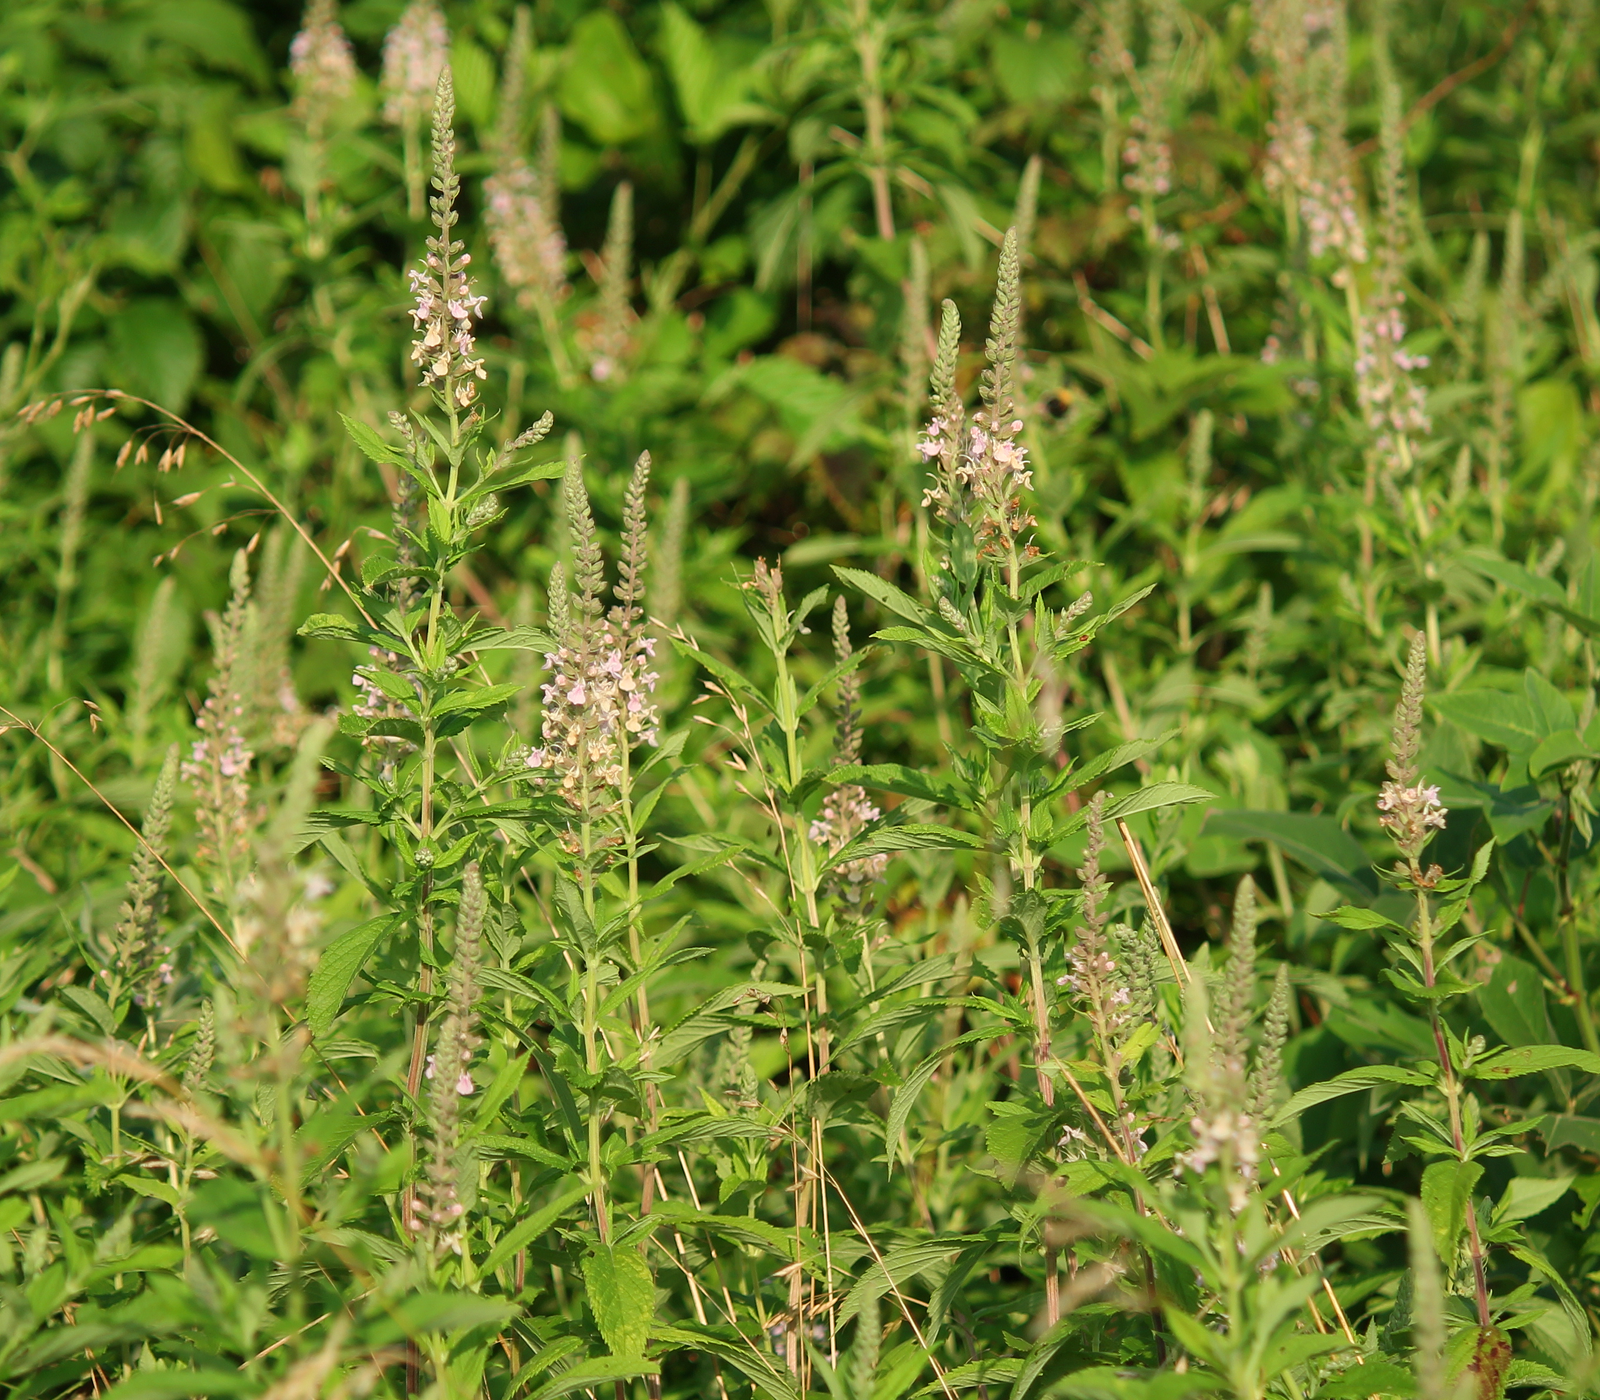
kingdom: Plantae
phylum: Tracheophyta
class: Magnoliopsida
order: Lamiales
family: Lamiaceae
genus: Teucrium
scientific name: Teucrium canadense
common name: American germander
